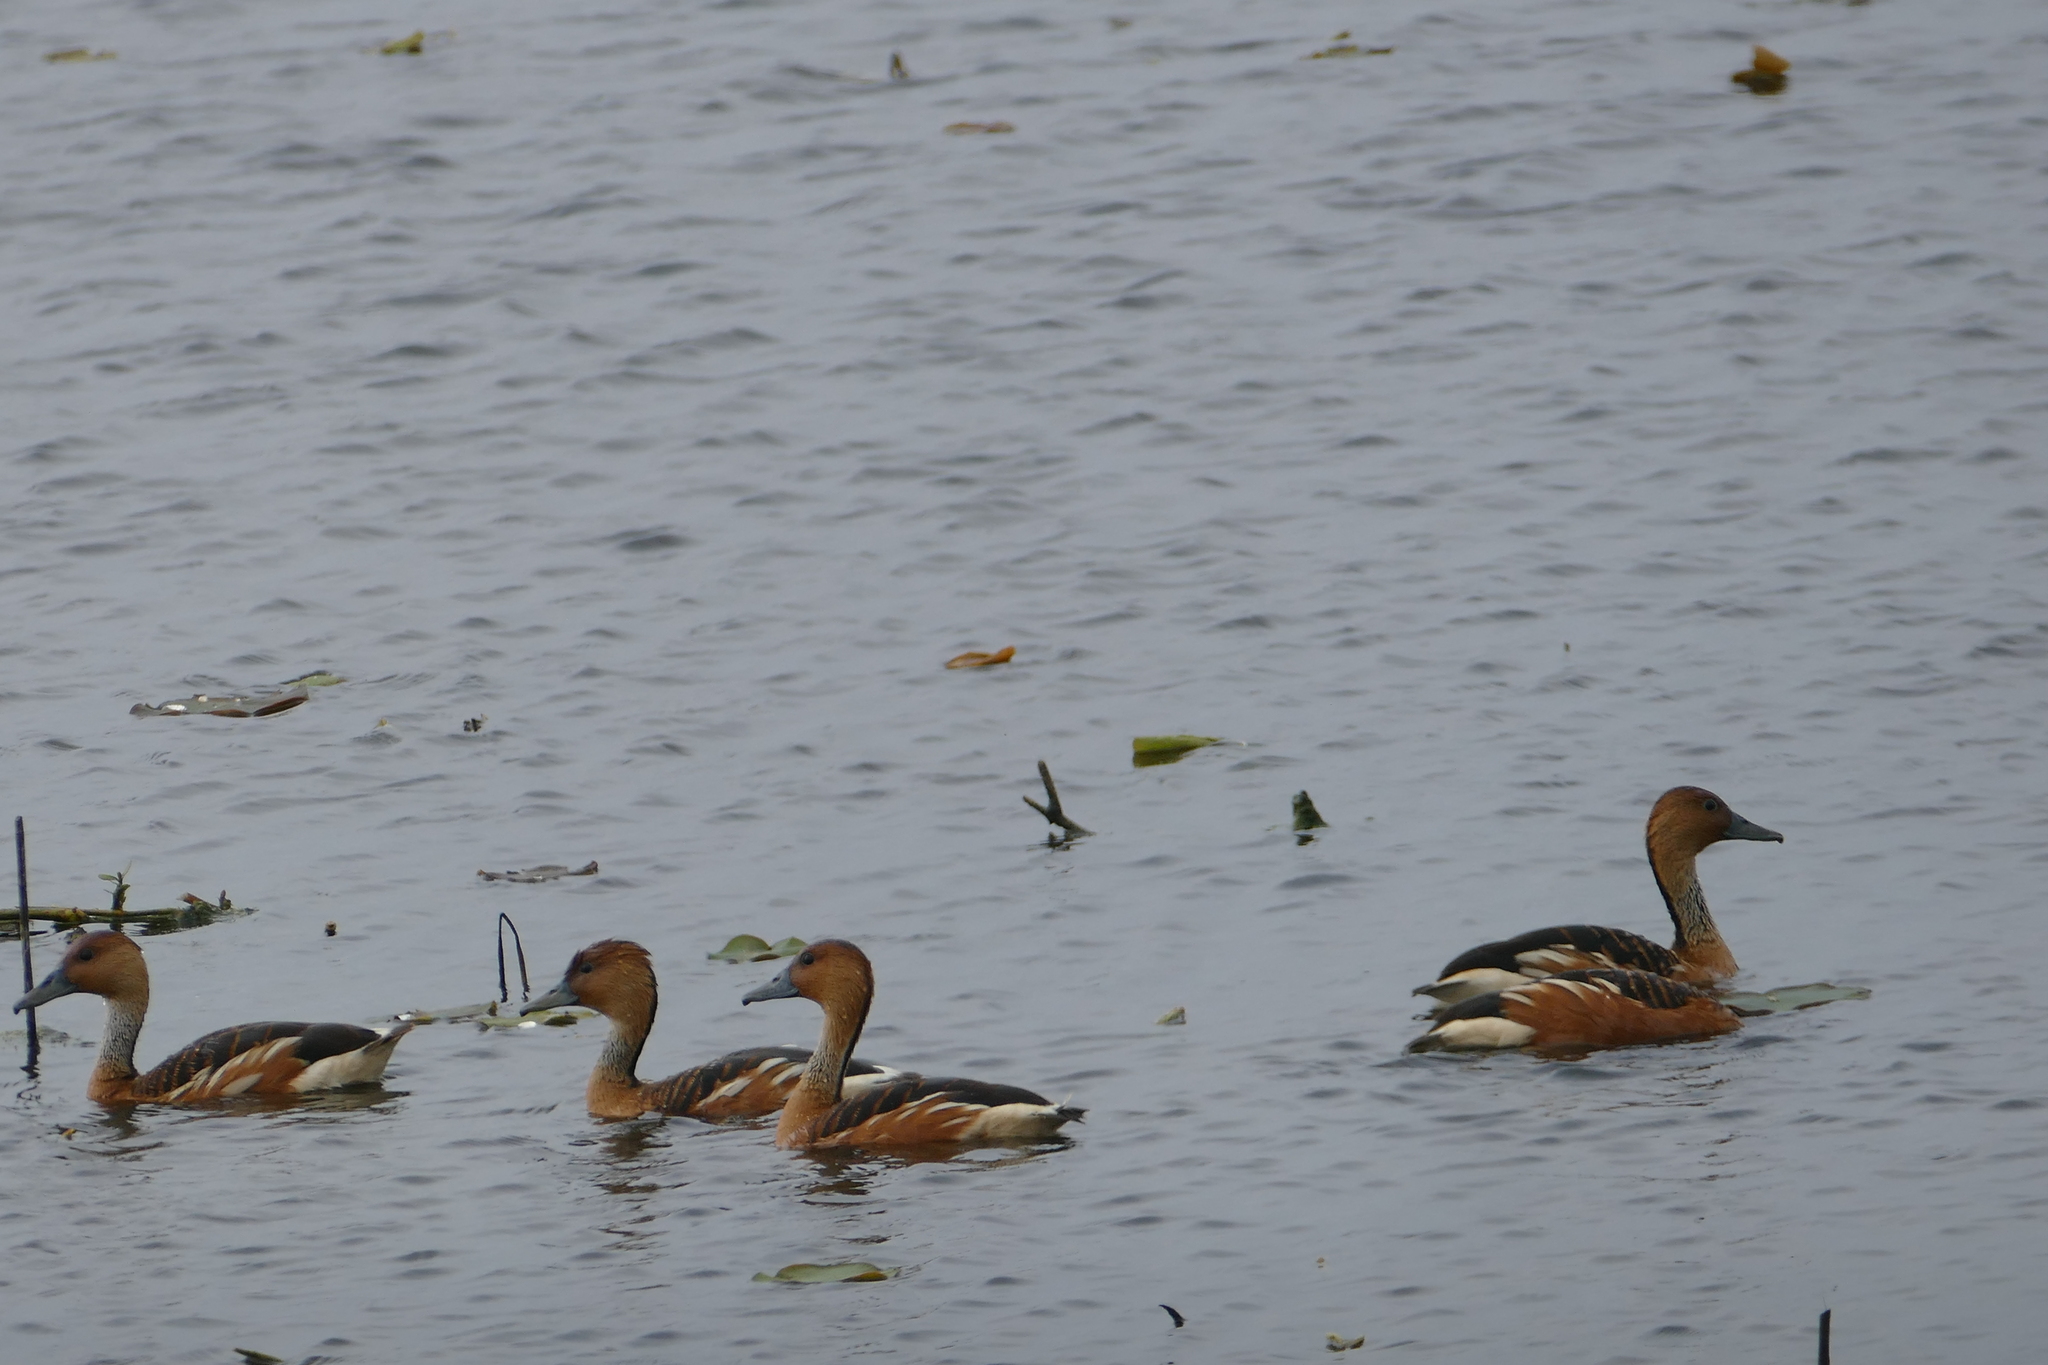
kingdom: Animalia
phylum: Chordata
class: Aves
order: Anseriformes
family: Anatidae
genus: Dendrocygna
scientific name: Dendrocygna bicolor
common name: Fulvous whistling duck
